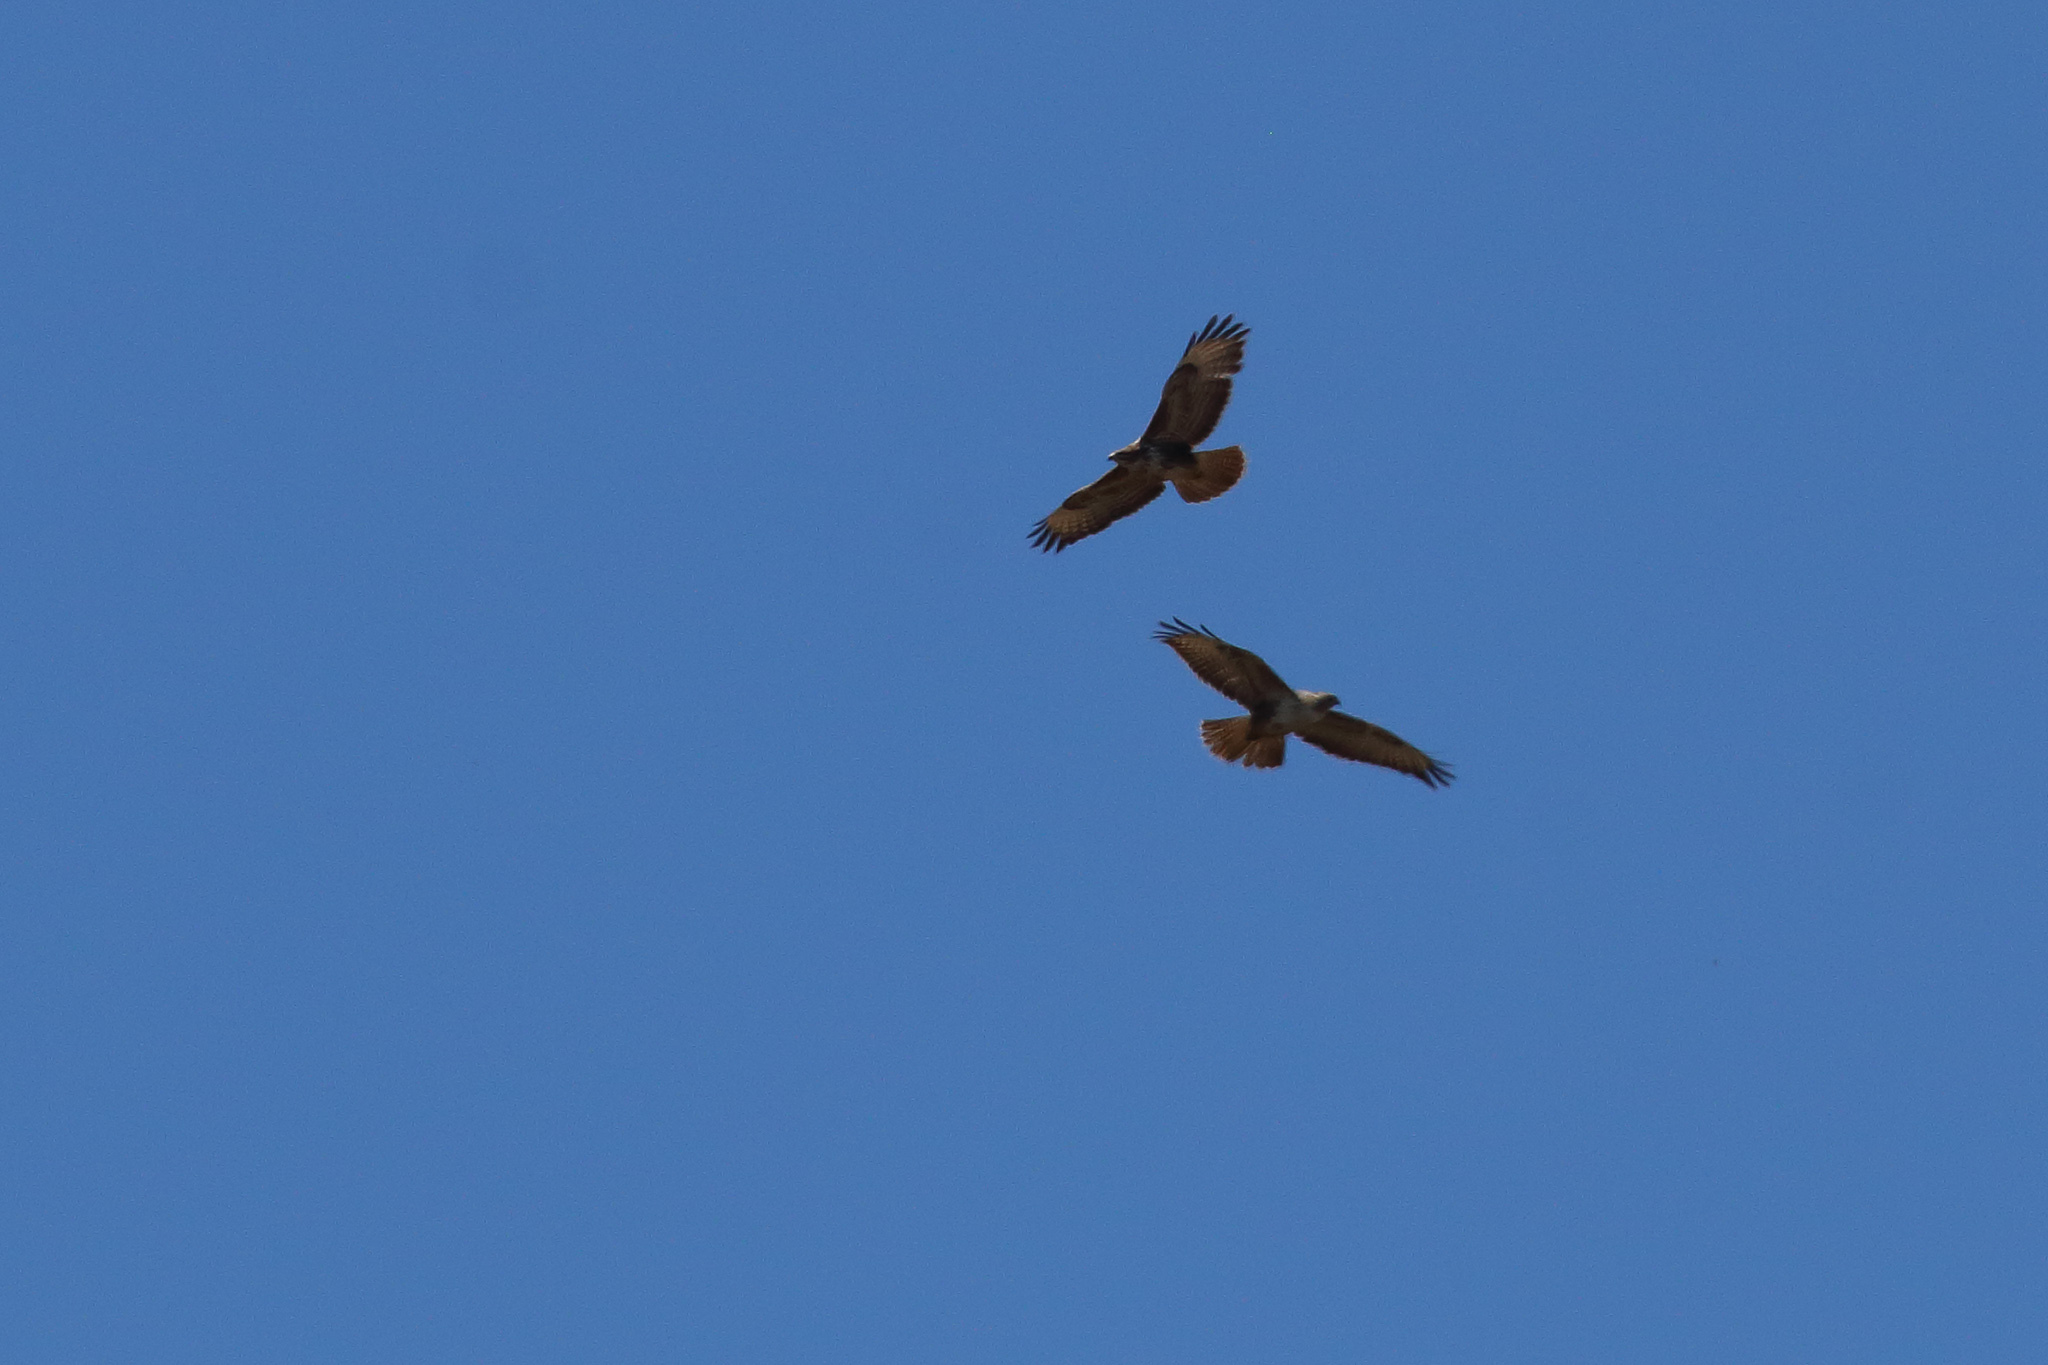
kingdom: Animalia
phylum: Chordata
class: Aves
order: Accipitriformes
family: Accipitridae
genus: Buteo
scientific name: Buteo buteo
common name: Common buzzard
